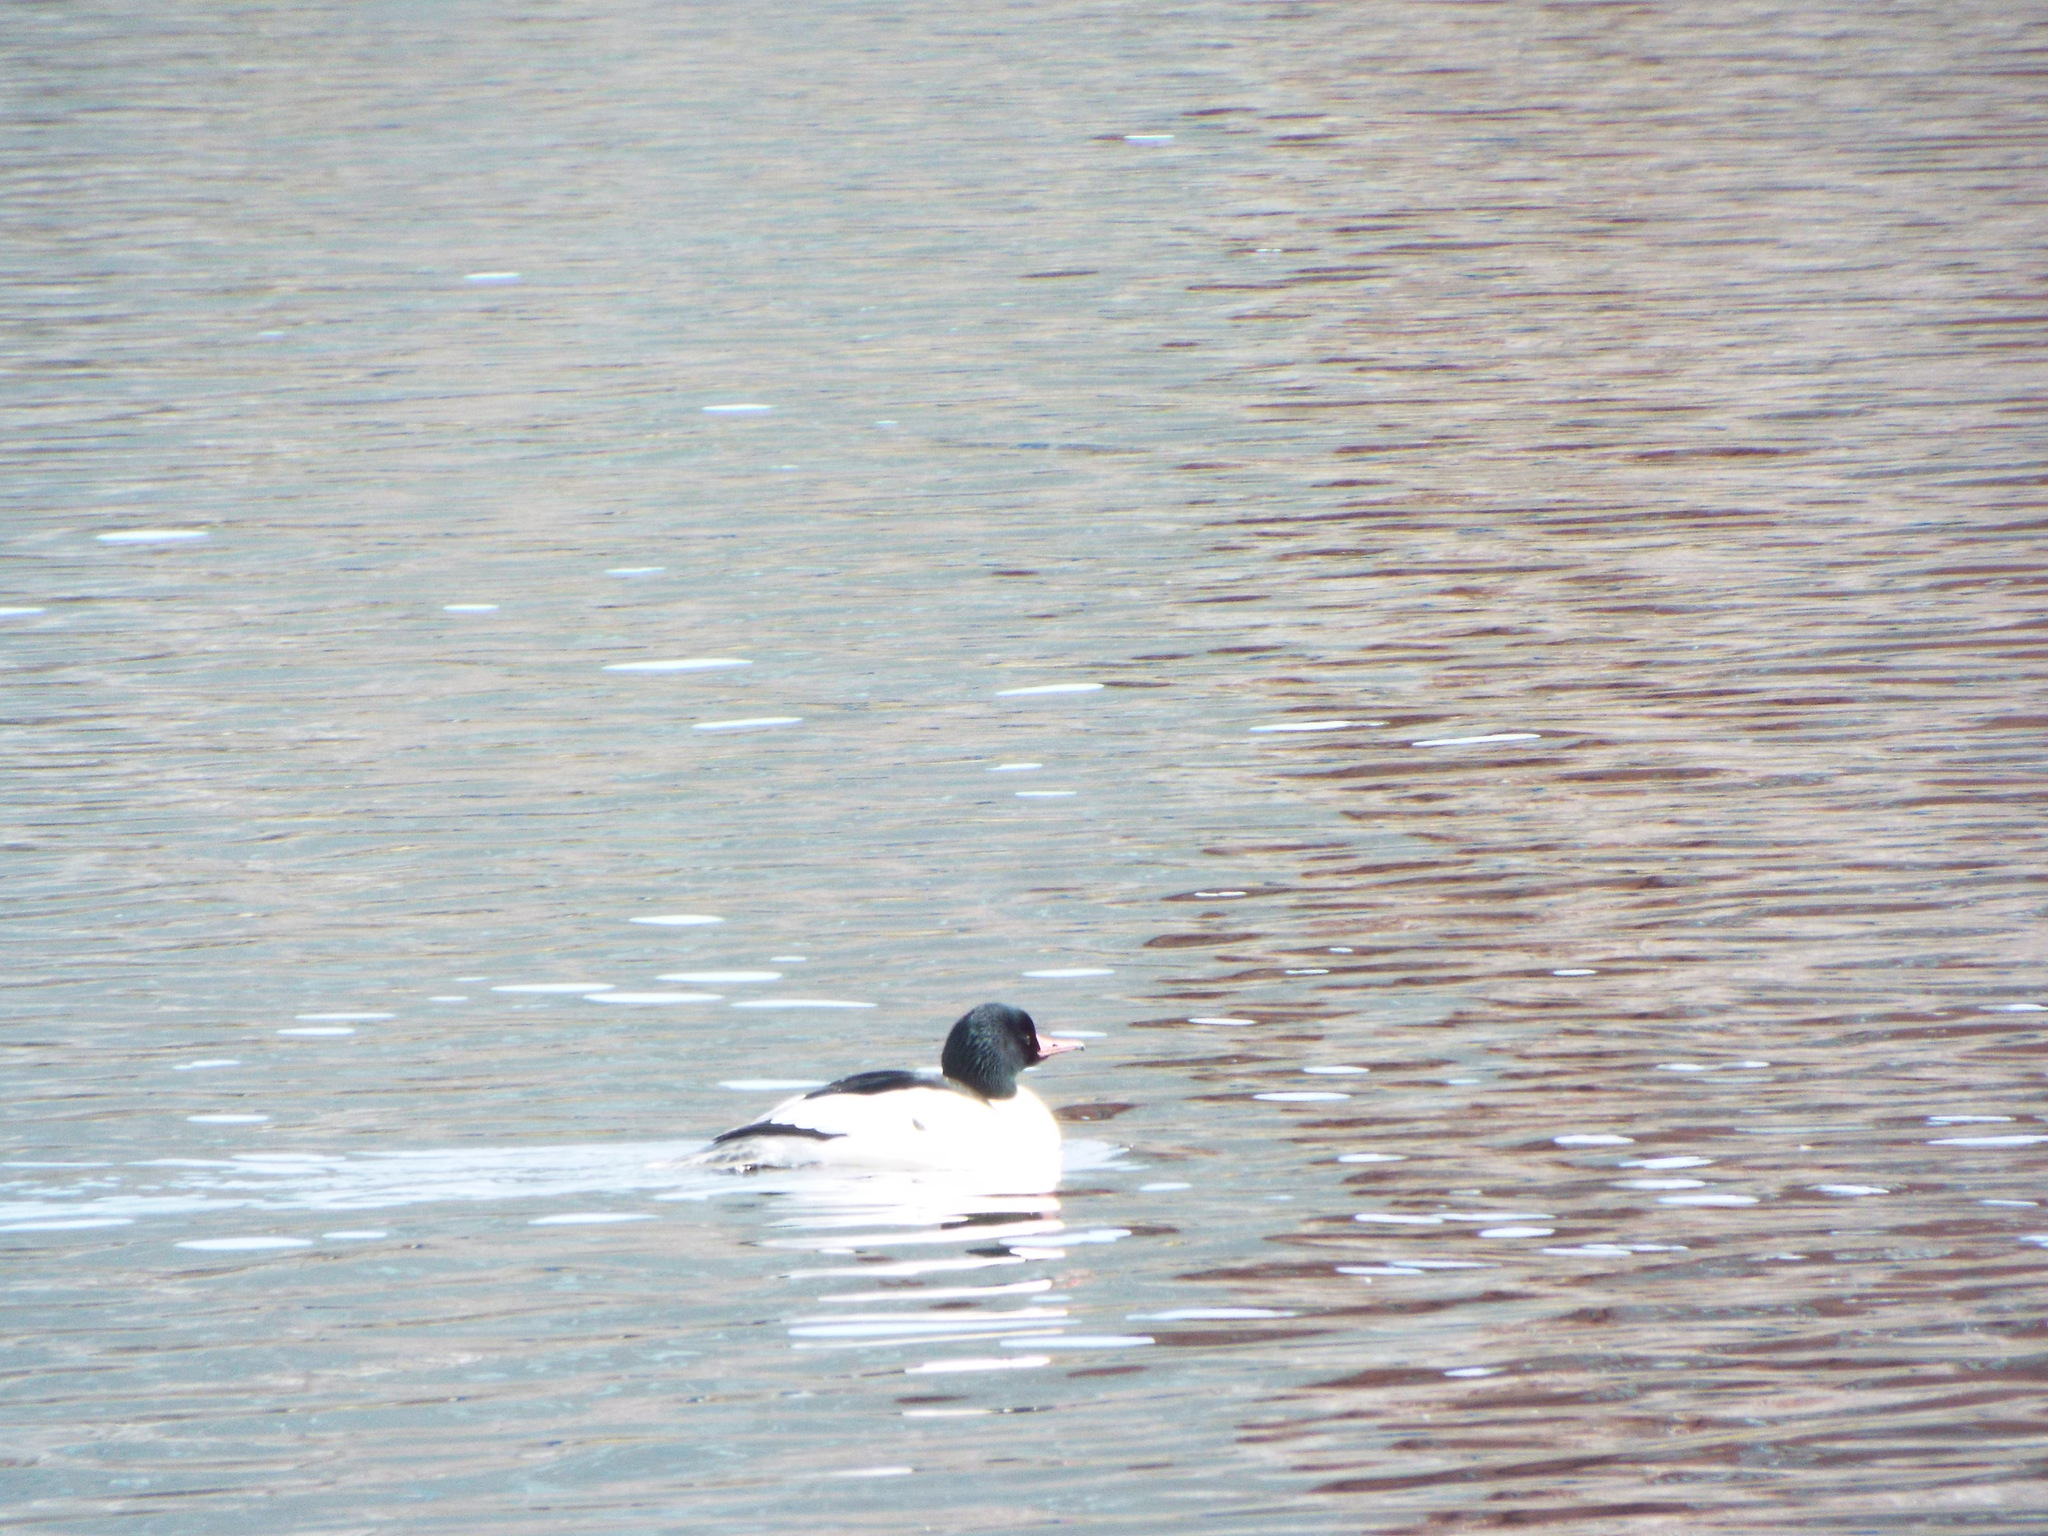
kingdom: Animalia
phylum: Chordata
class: Aves
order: Anseriformes
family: Anatidae
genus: Mergus
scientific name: Mergus merganser
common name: Common merganser
